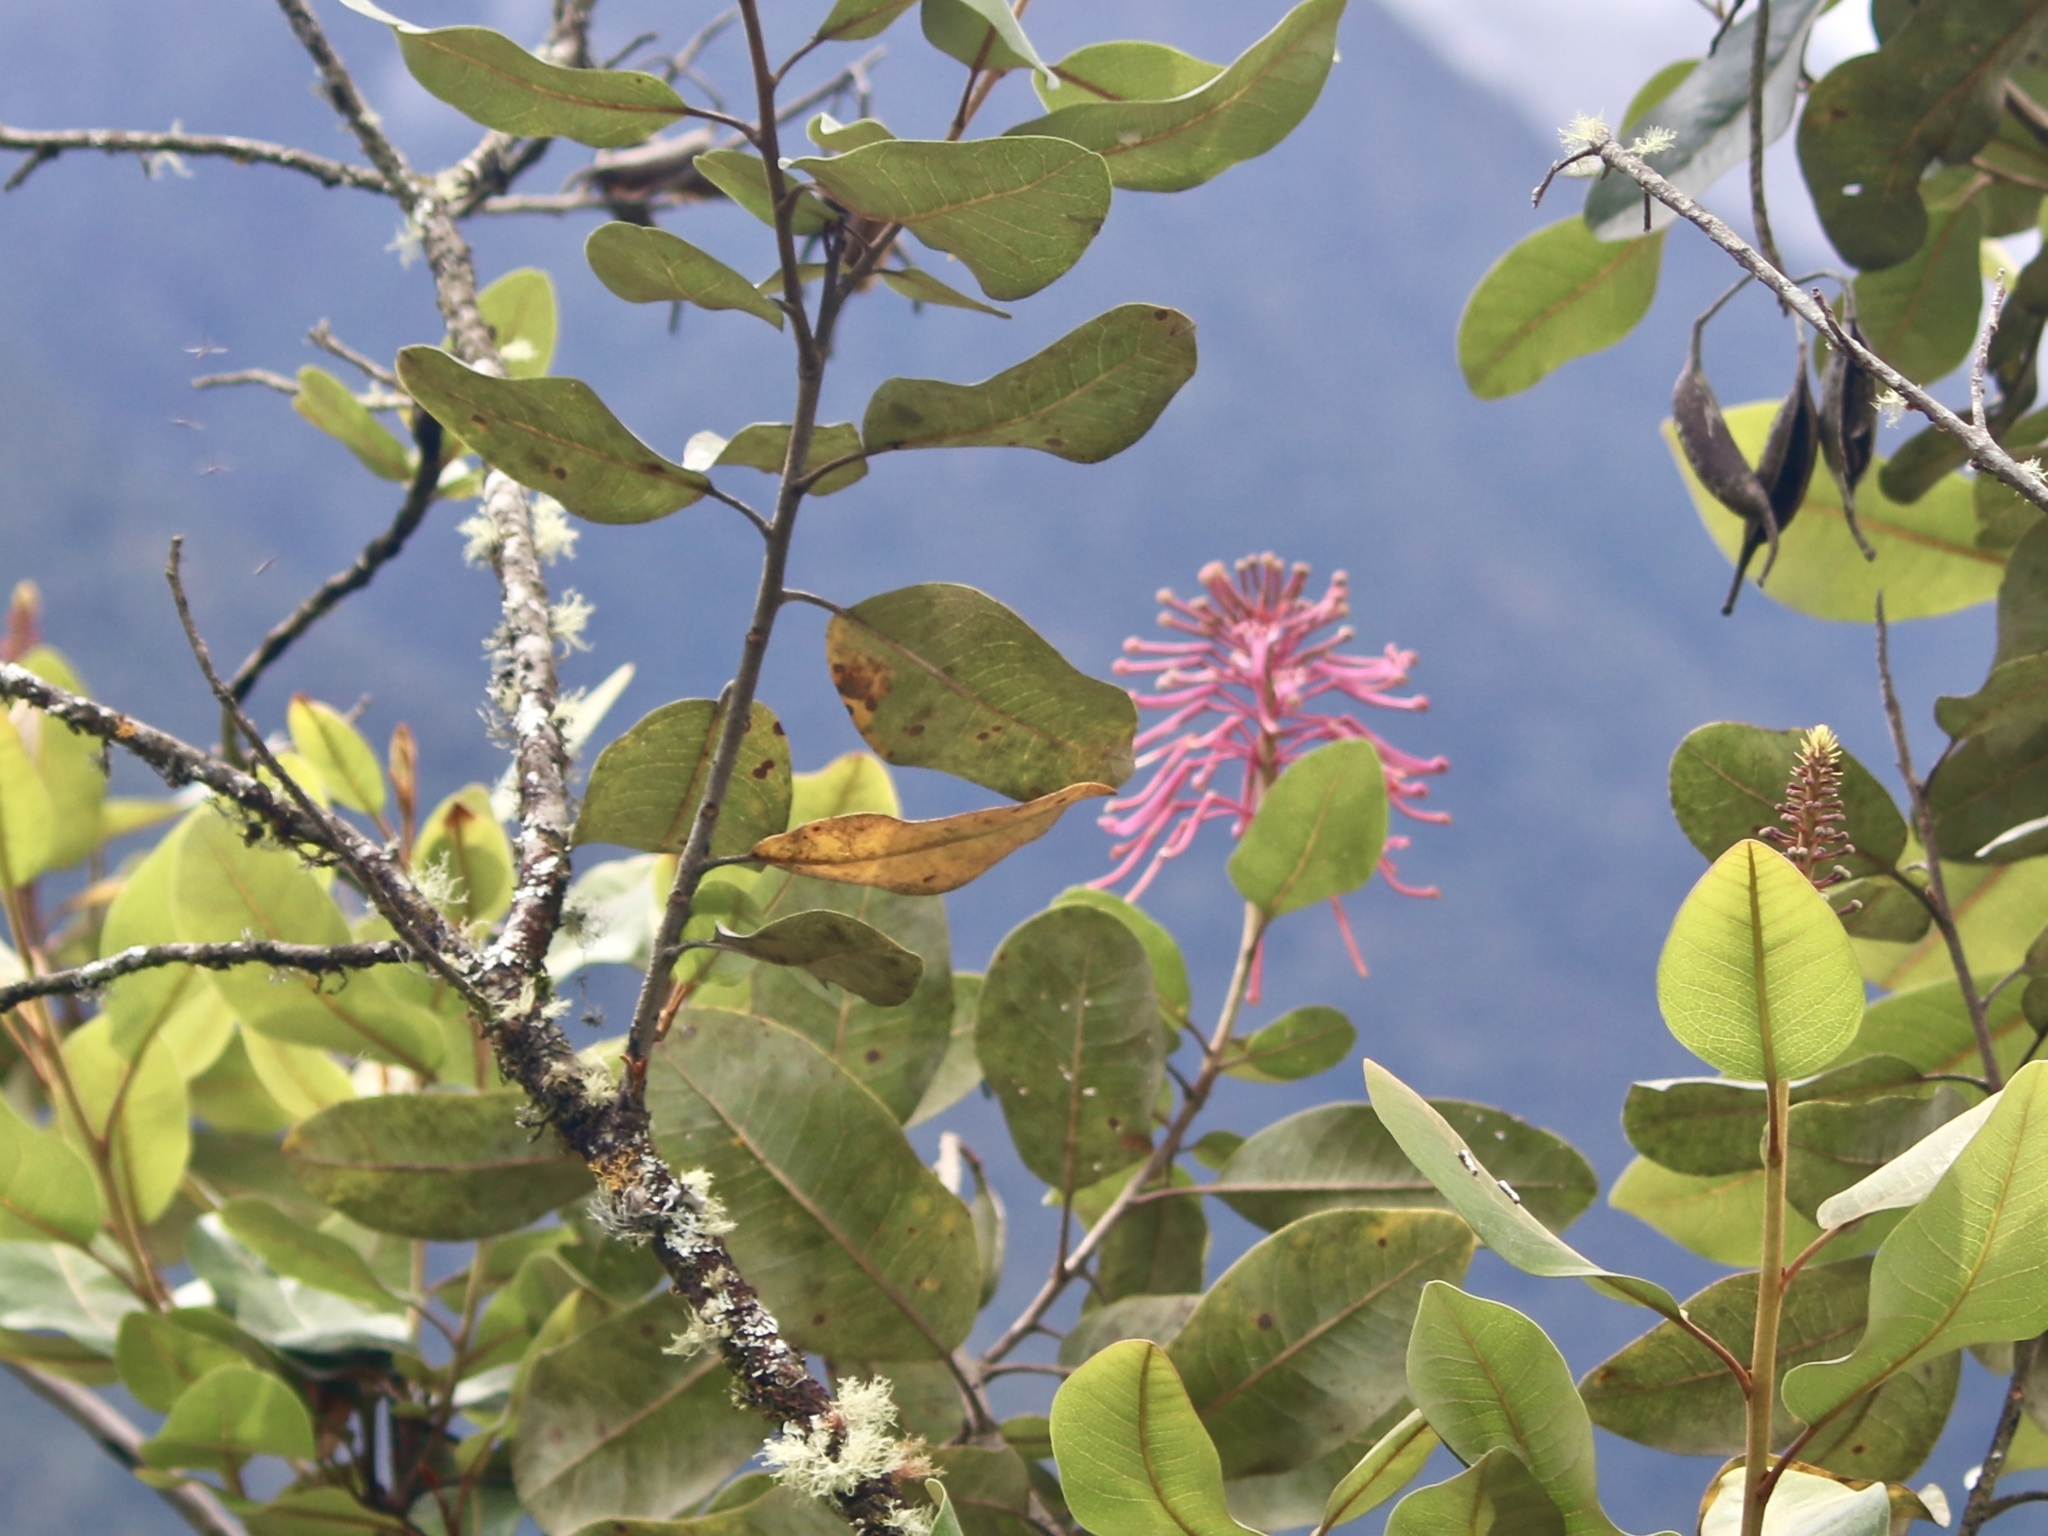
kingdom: Plantae
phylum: Tracheophyta
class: Magnoliopsida
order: Proteales
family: Proteaceae
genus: Oreocallis
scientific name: Oreocallis grandiflora
